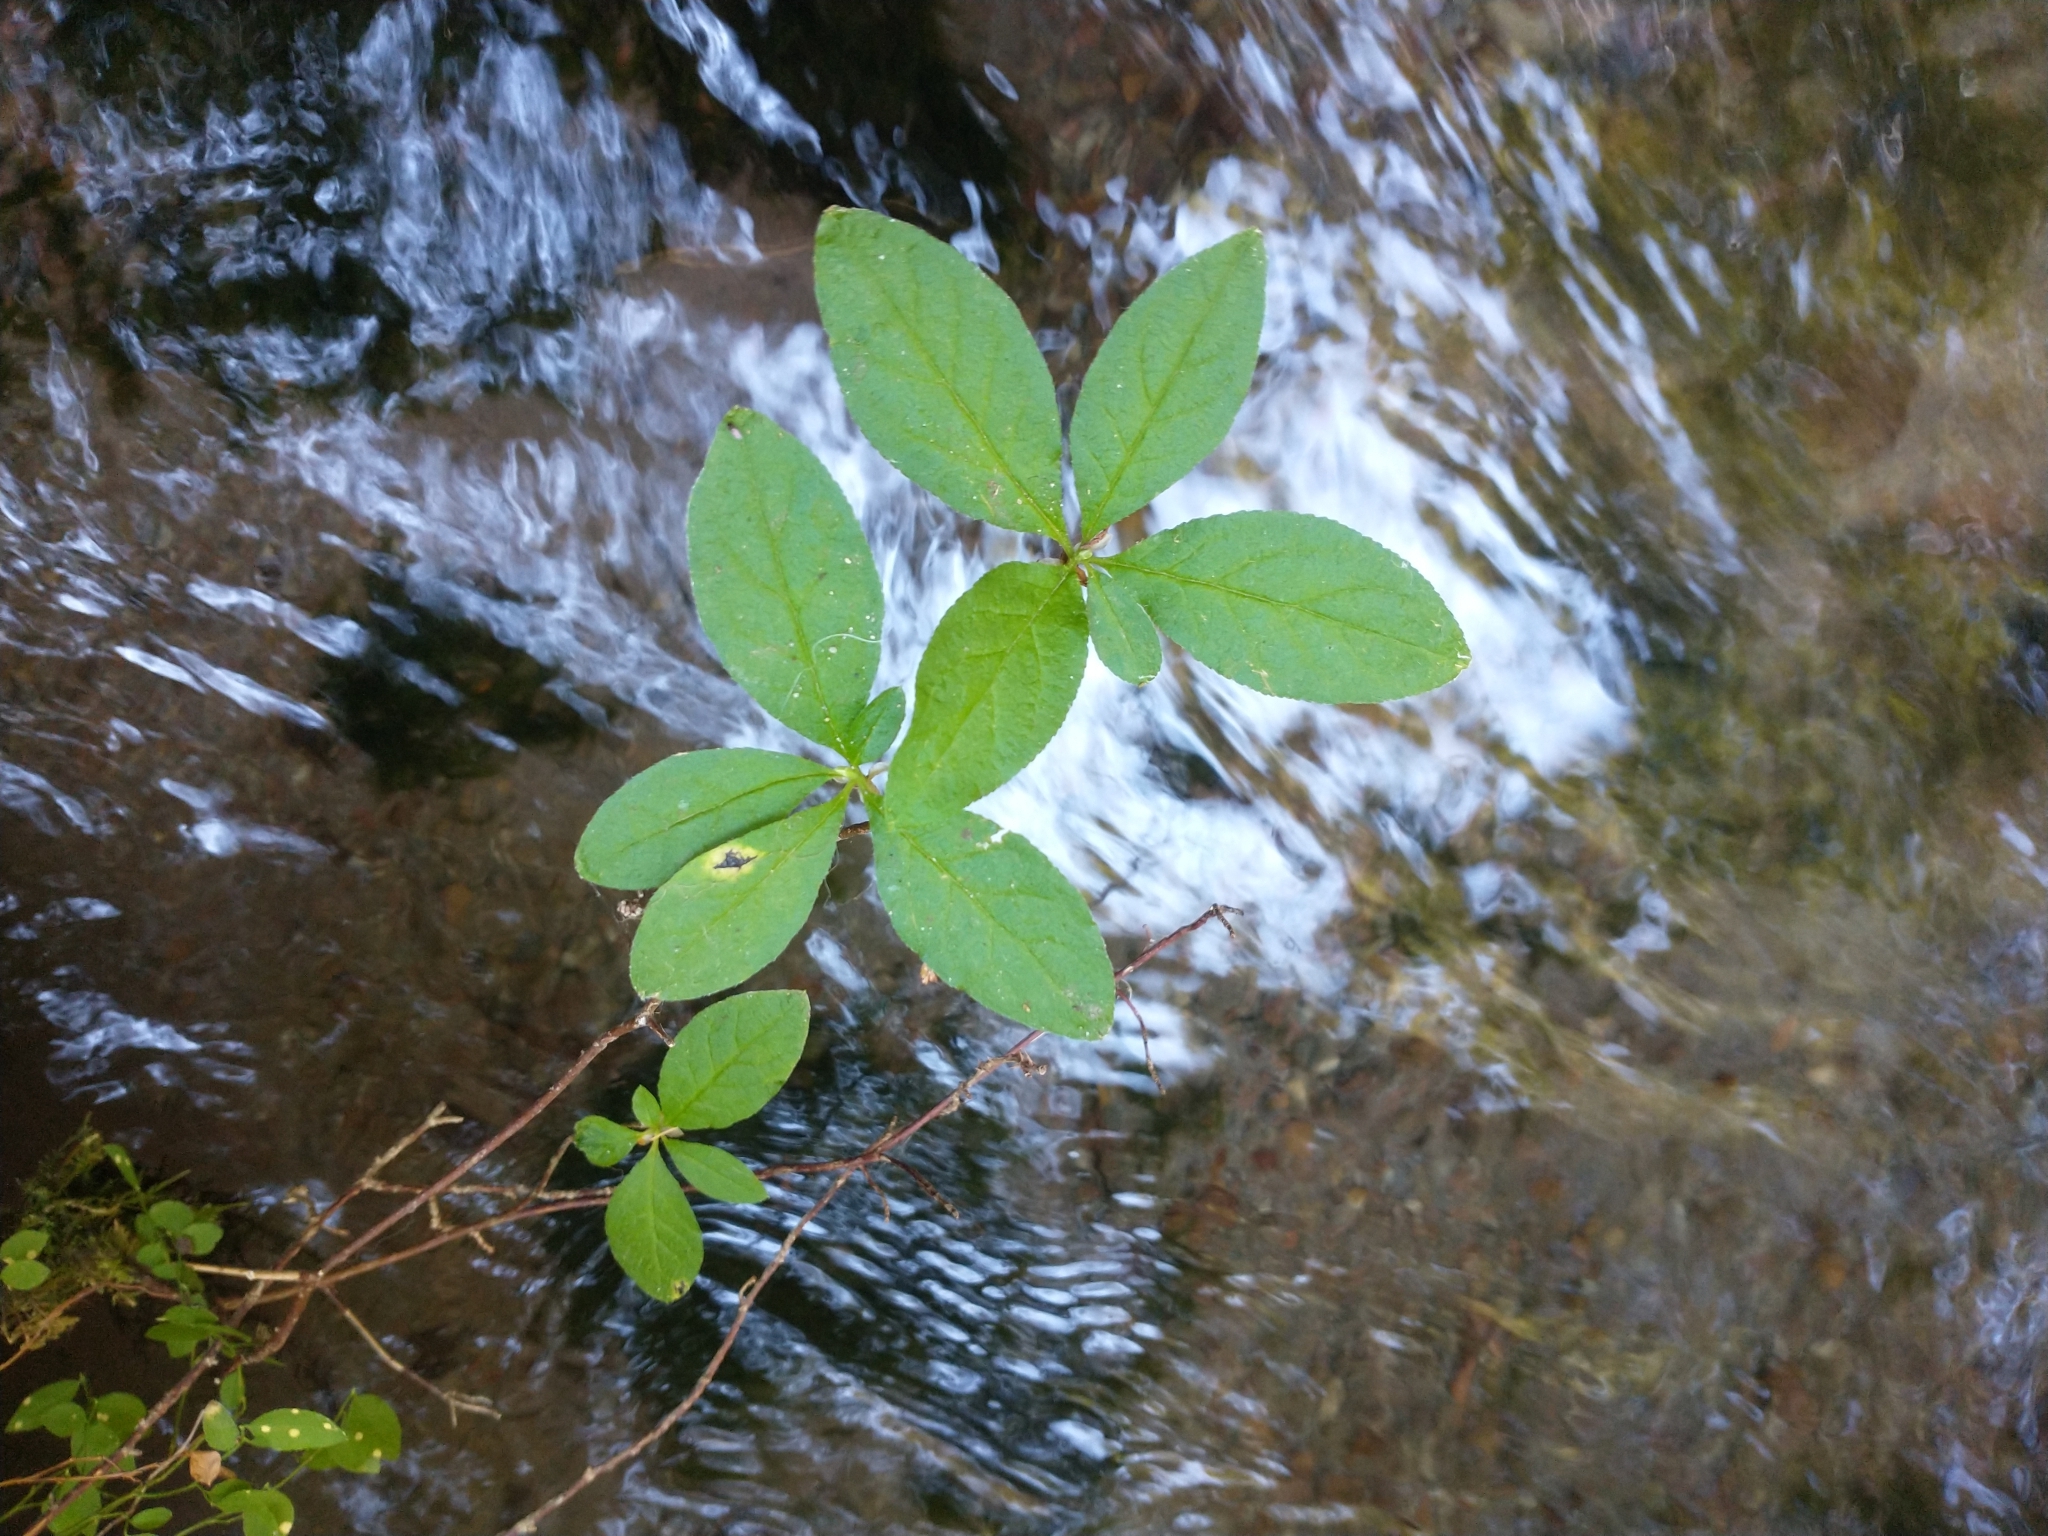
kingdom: Plantae
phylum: Tracheophyta
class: Magnoliopsida
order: Ericales
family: Ericaceae
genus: Rhododendron
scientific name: Rhododendron menziesii
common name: Pacific menziesia
